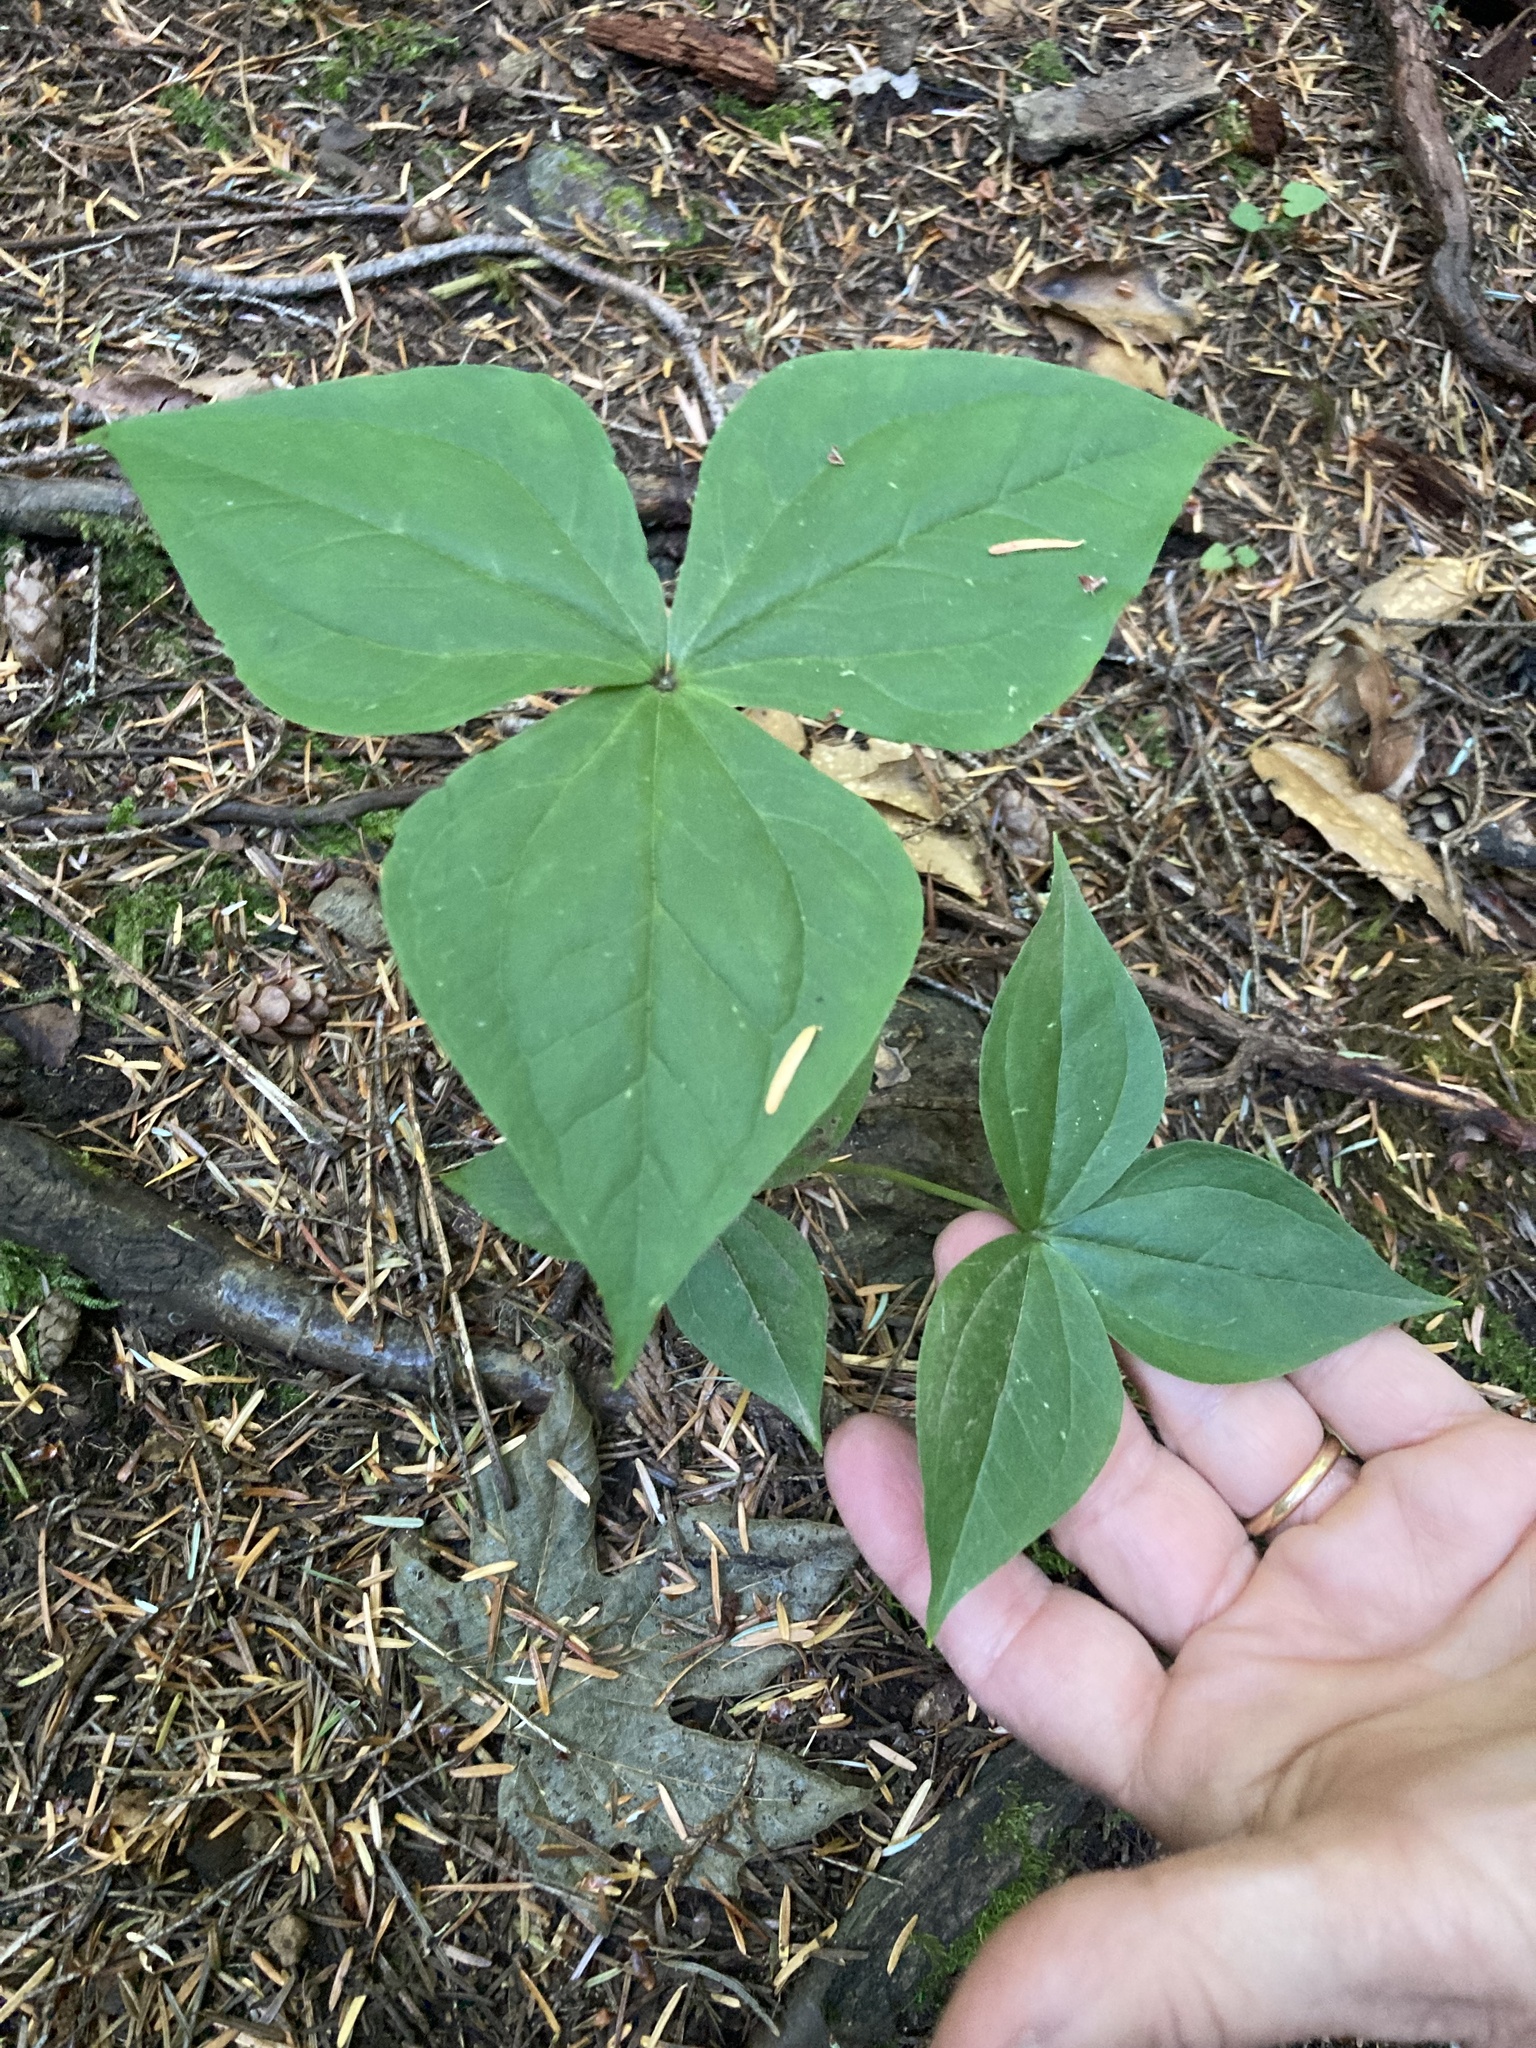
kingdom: Plantae
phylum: Tracheophyta
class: Liliopsida
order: Liliales
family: Melanthiaceae
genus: Trillium
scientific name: Trillium ovatum
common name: Pacific trillium
